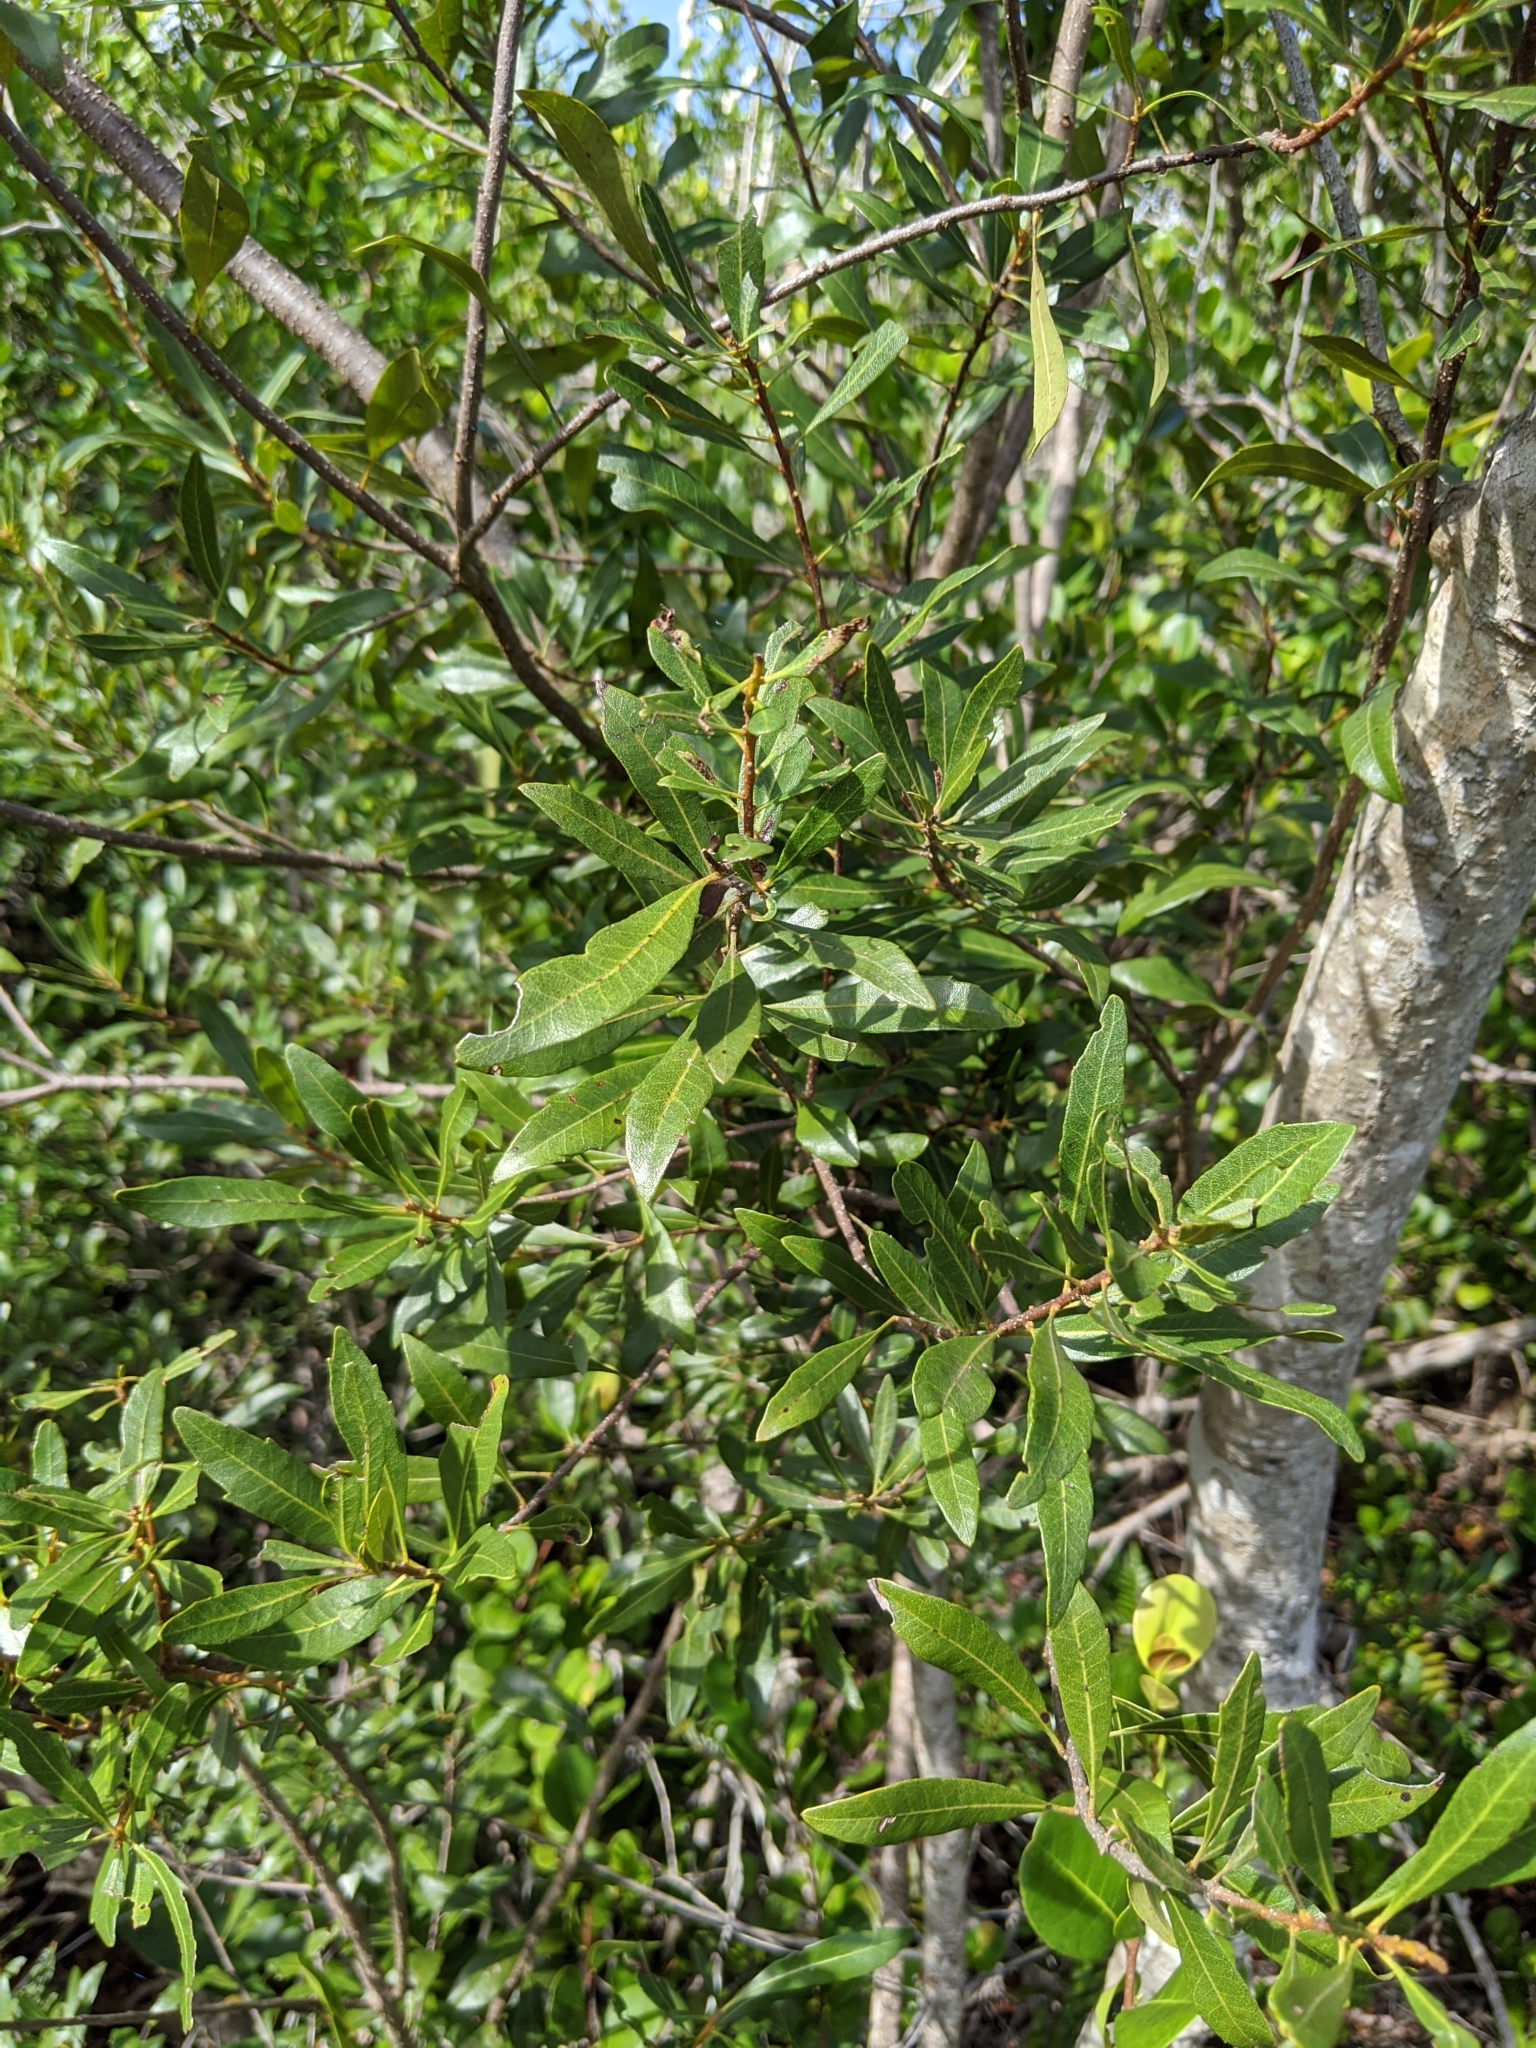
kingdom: Plantae
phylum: Tracheophyta
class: Magnoliopsida
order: Fagales
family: Myricaceae
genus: Morella
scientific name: Morella cerifera
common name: Wax myrtle
